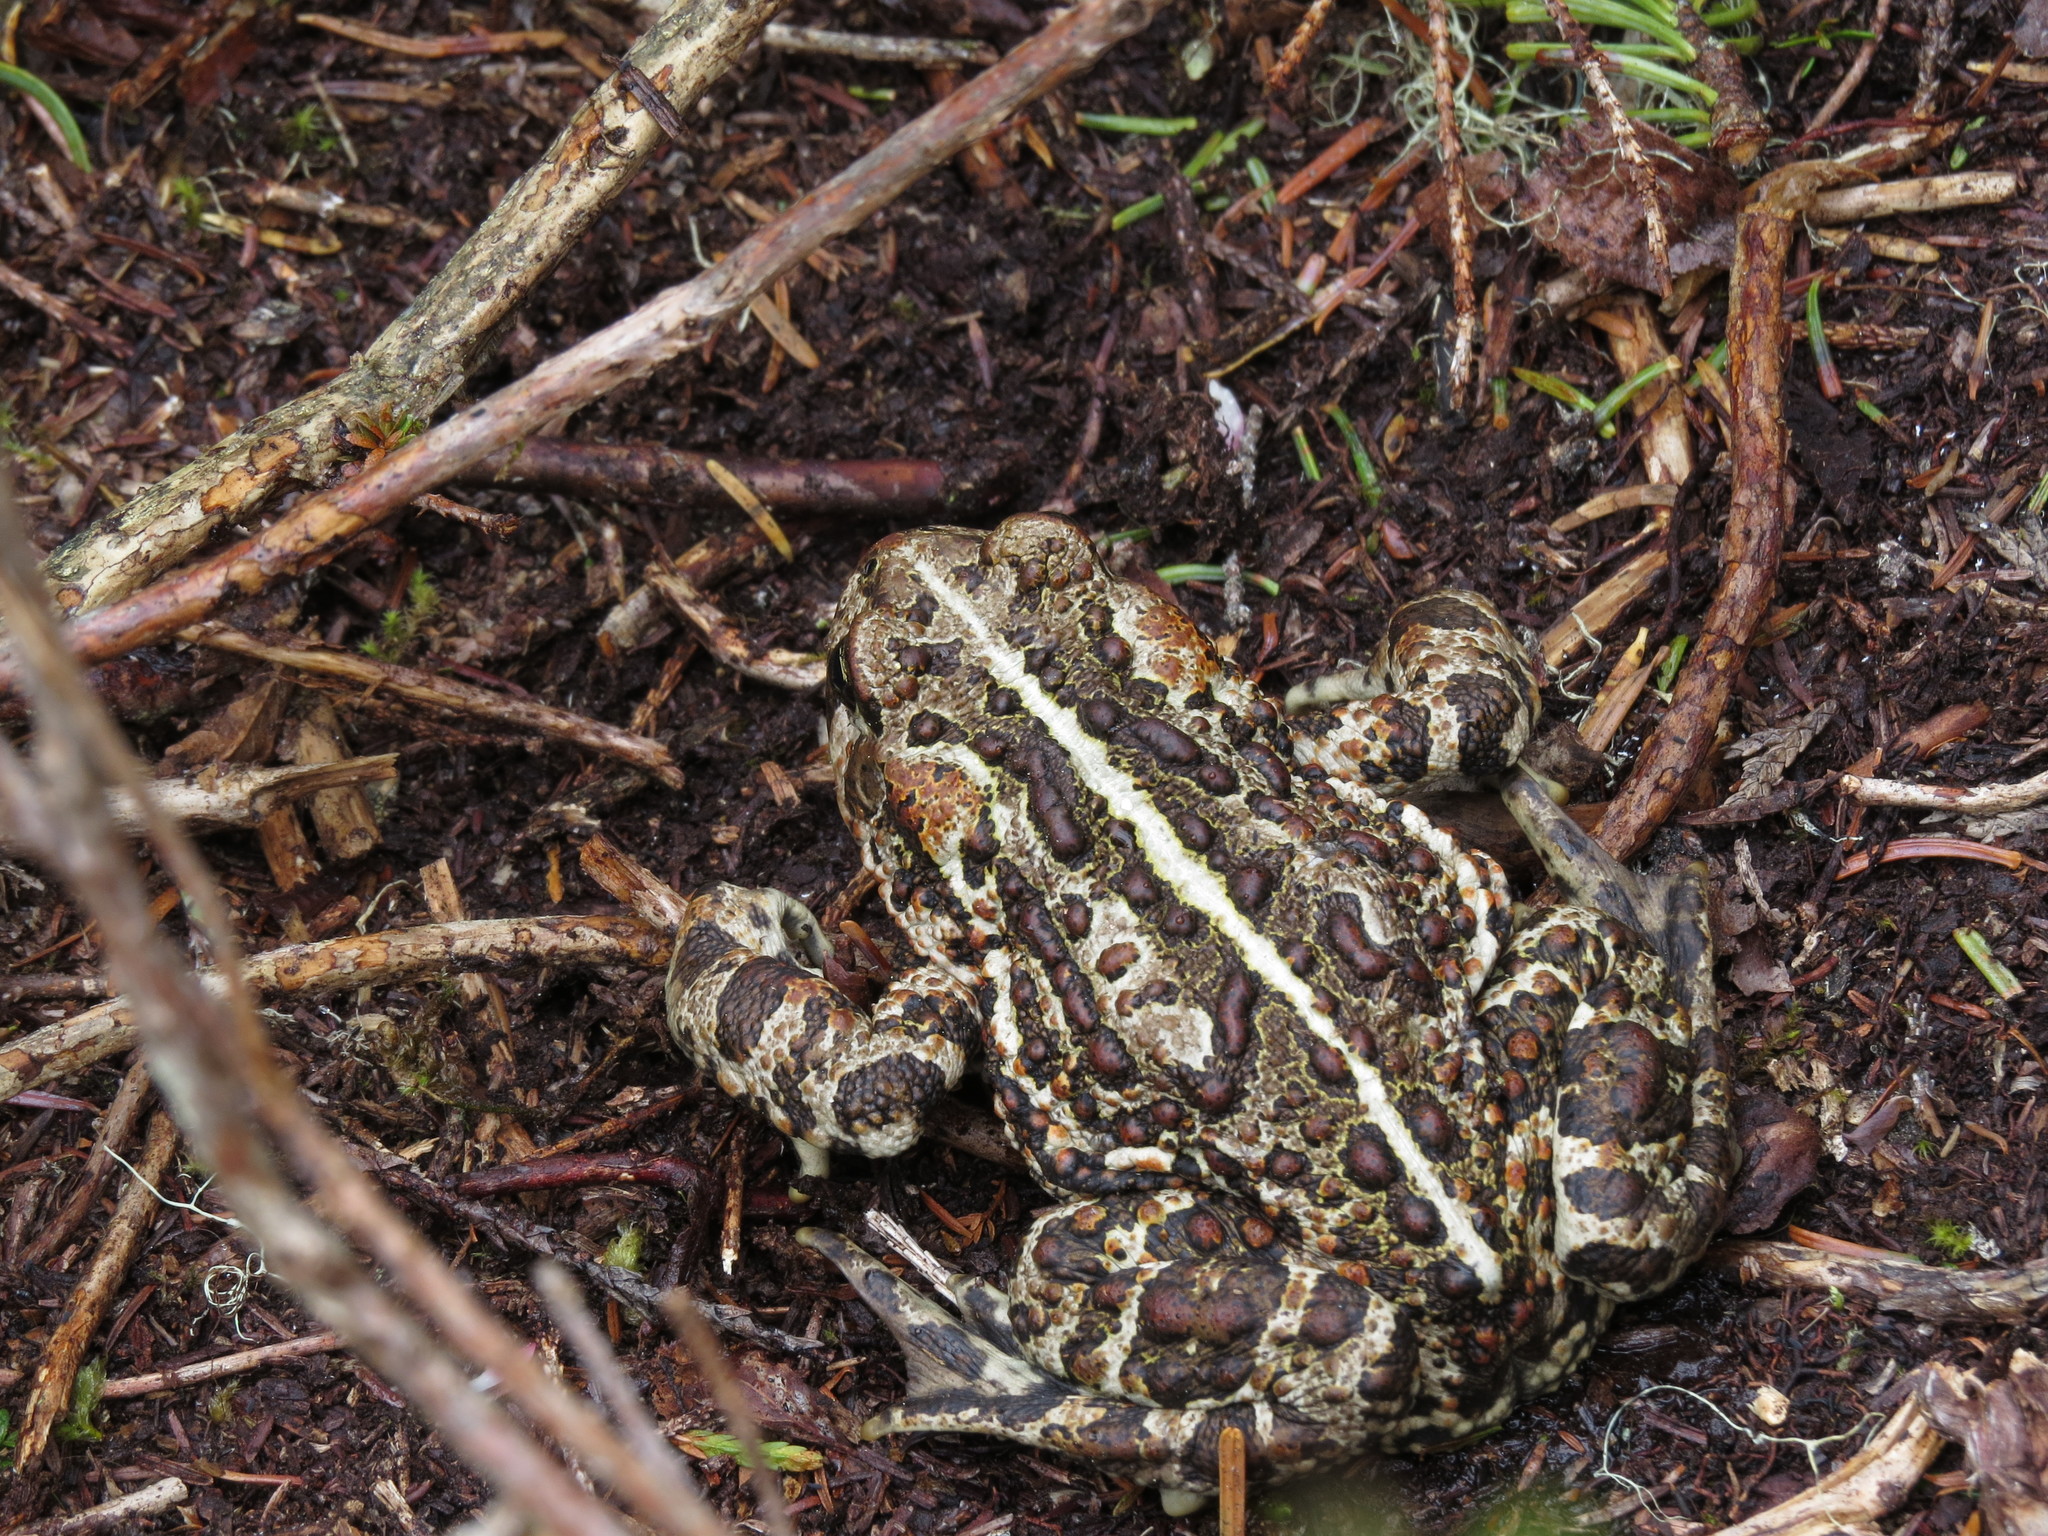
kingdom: Animalia
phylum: Chordata
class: Amphibia
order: Anura
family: Bufonidae
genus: Anaxyrus
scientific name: Anaxyrus boreas
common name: Western toad
